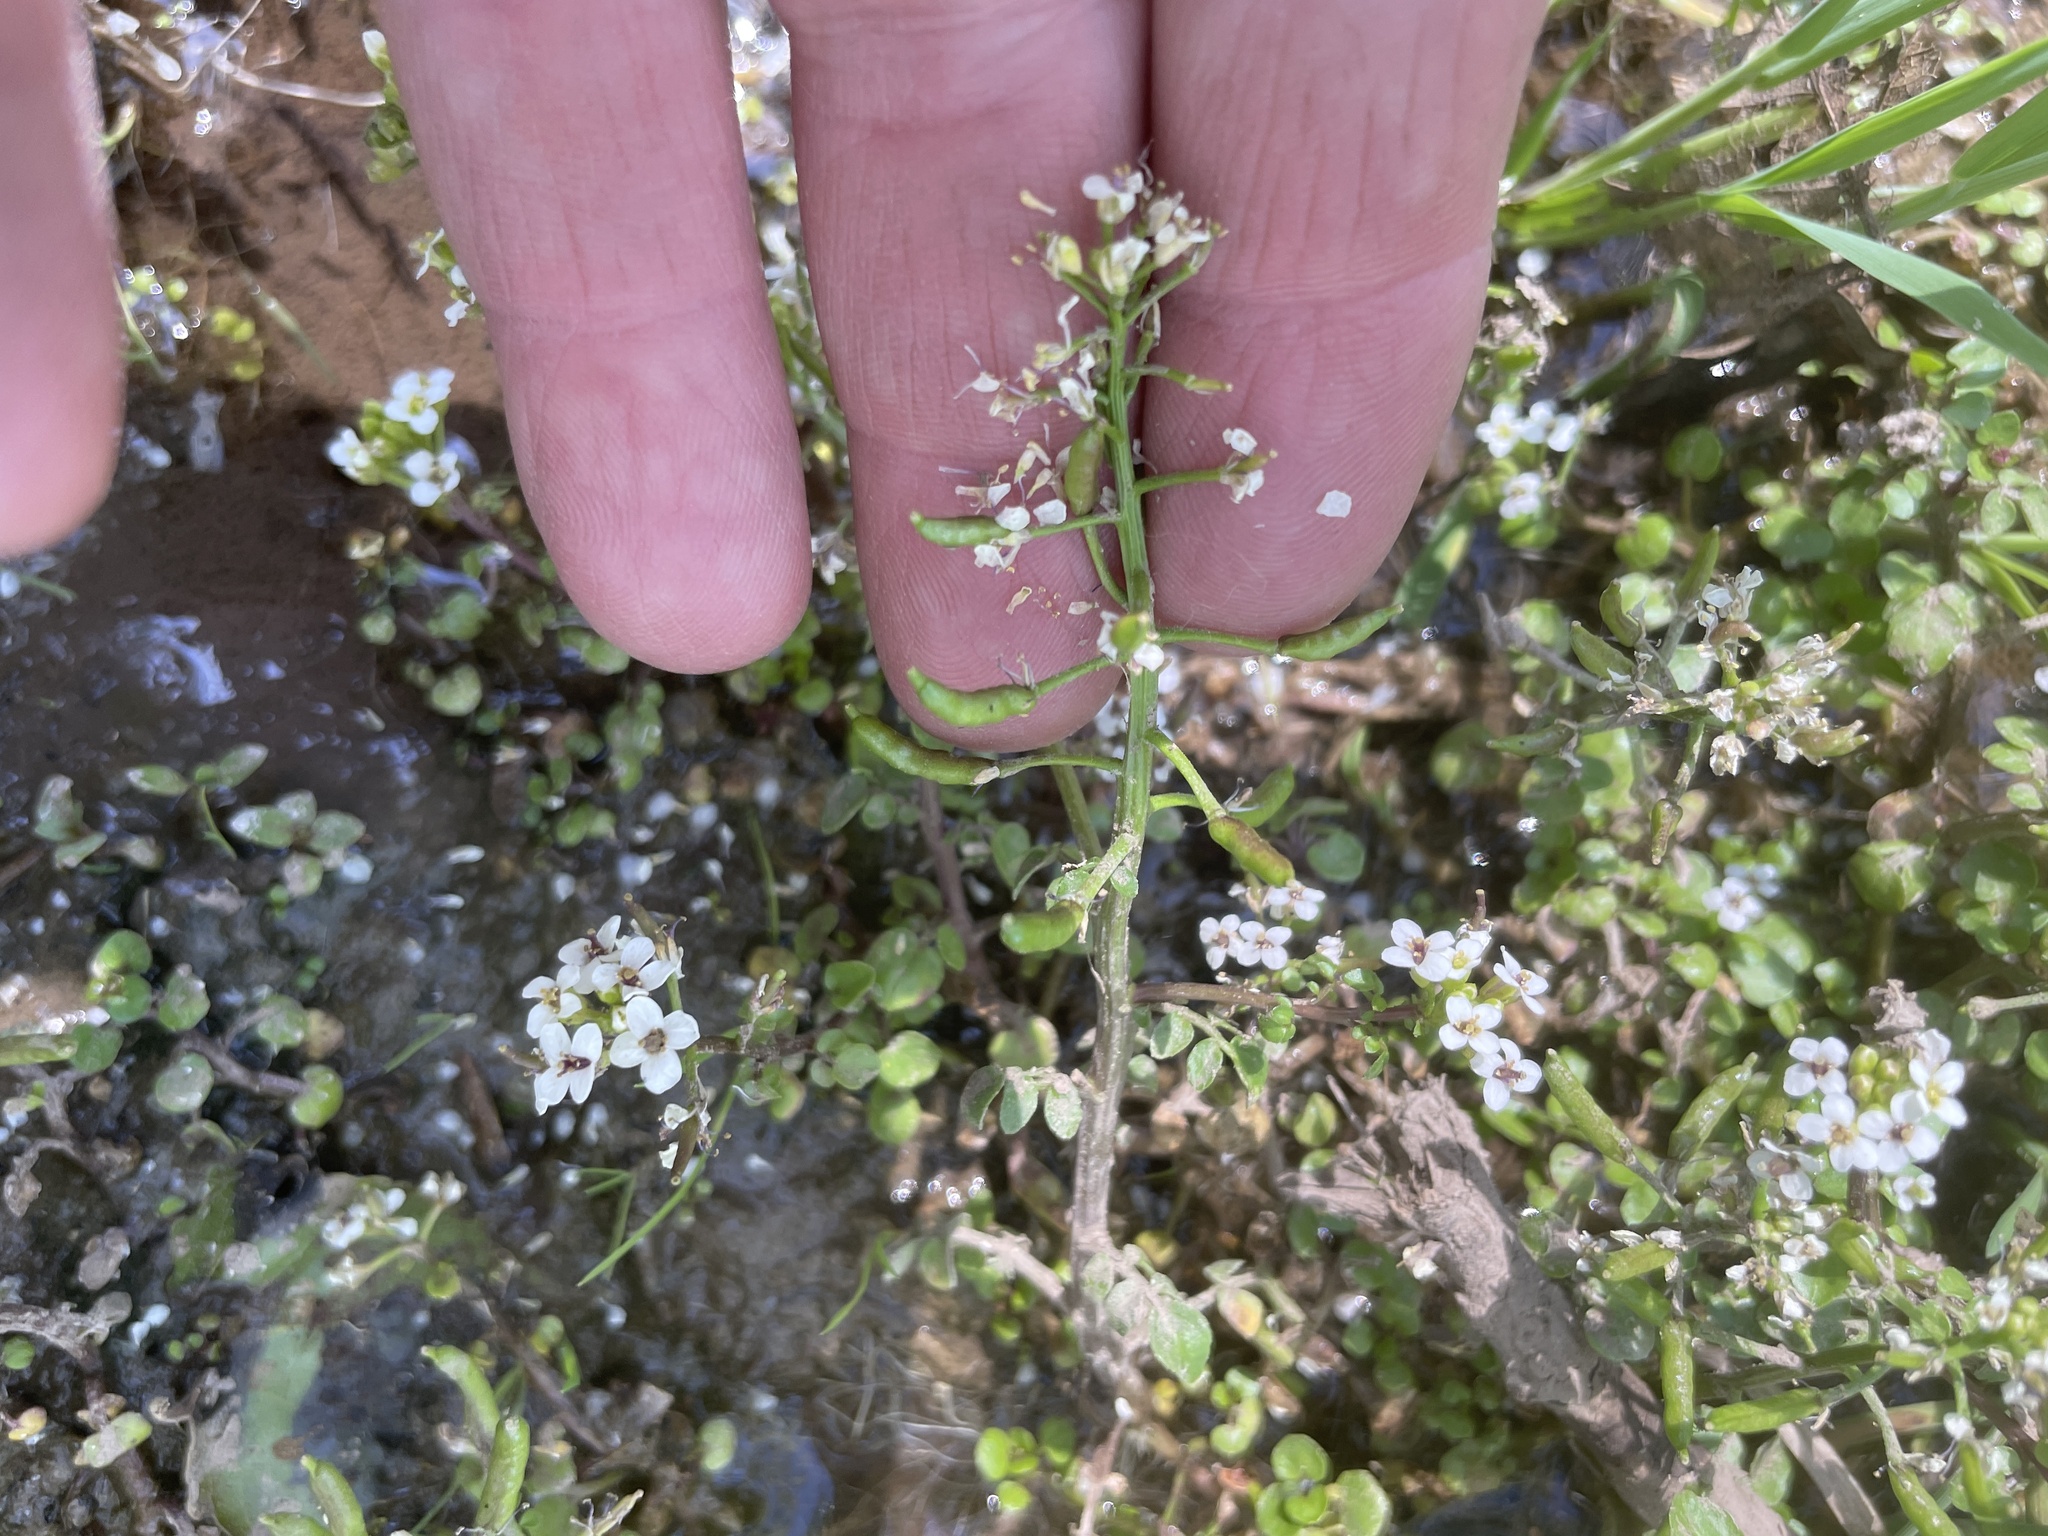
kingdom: Plantae
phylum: Tracheophyta
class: Magnoliopsida
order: Brassicales
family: Brassicaceae
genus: Nasturtium
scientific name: Nasturtium officinale
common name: Watercress
